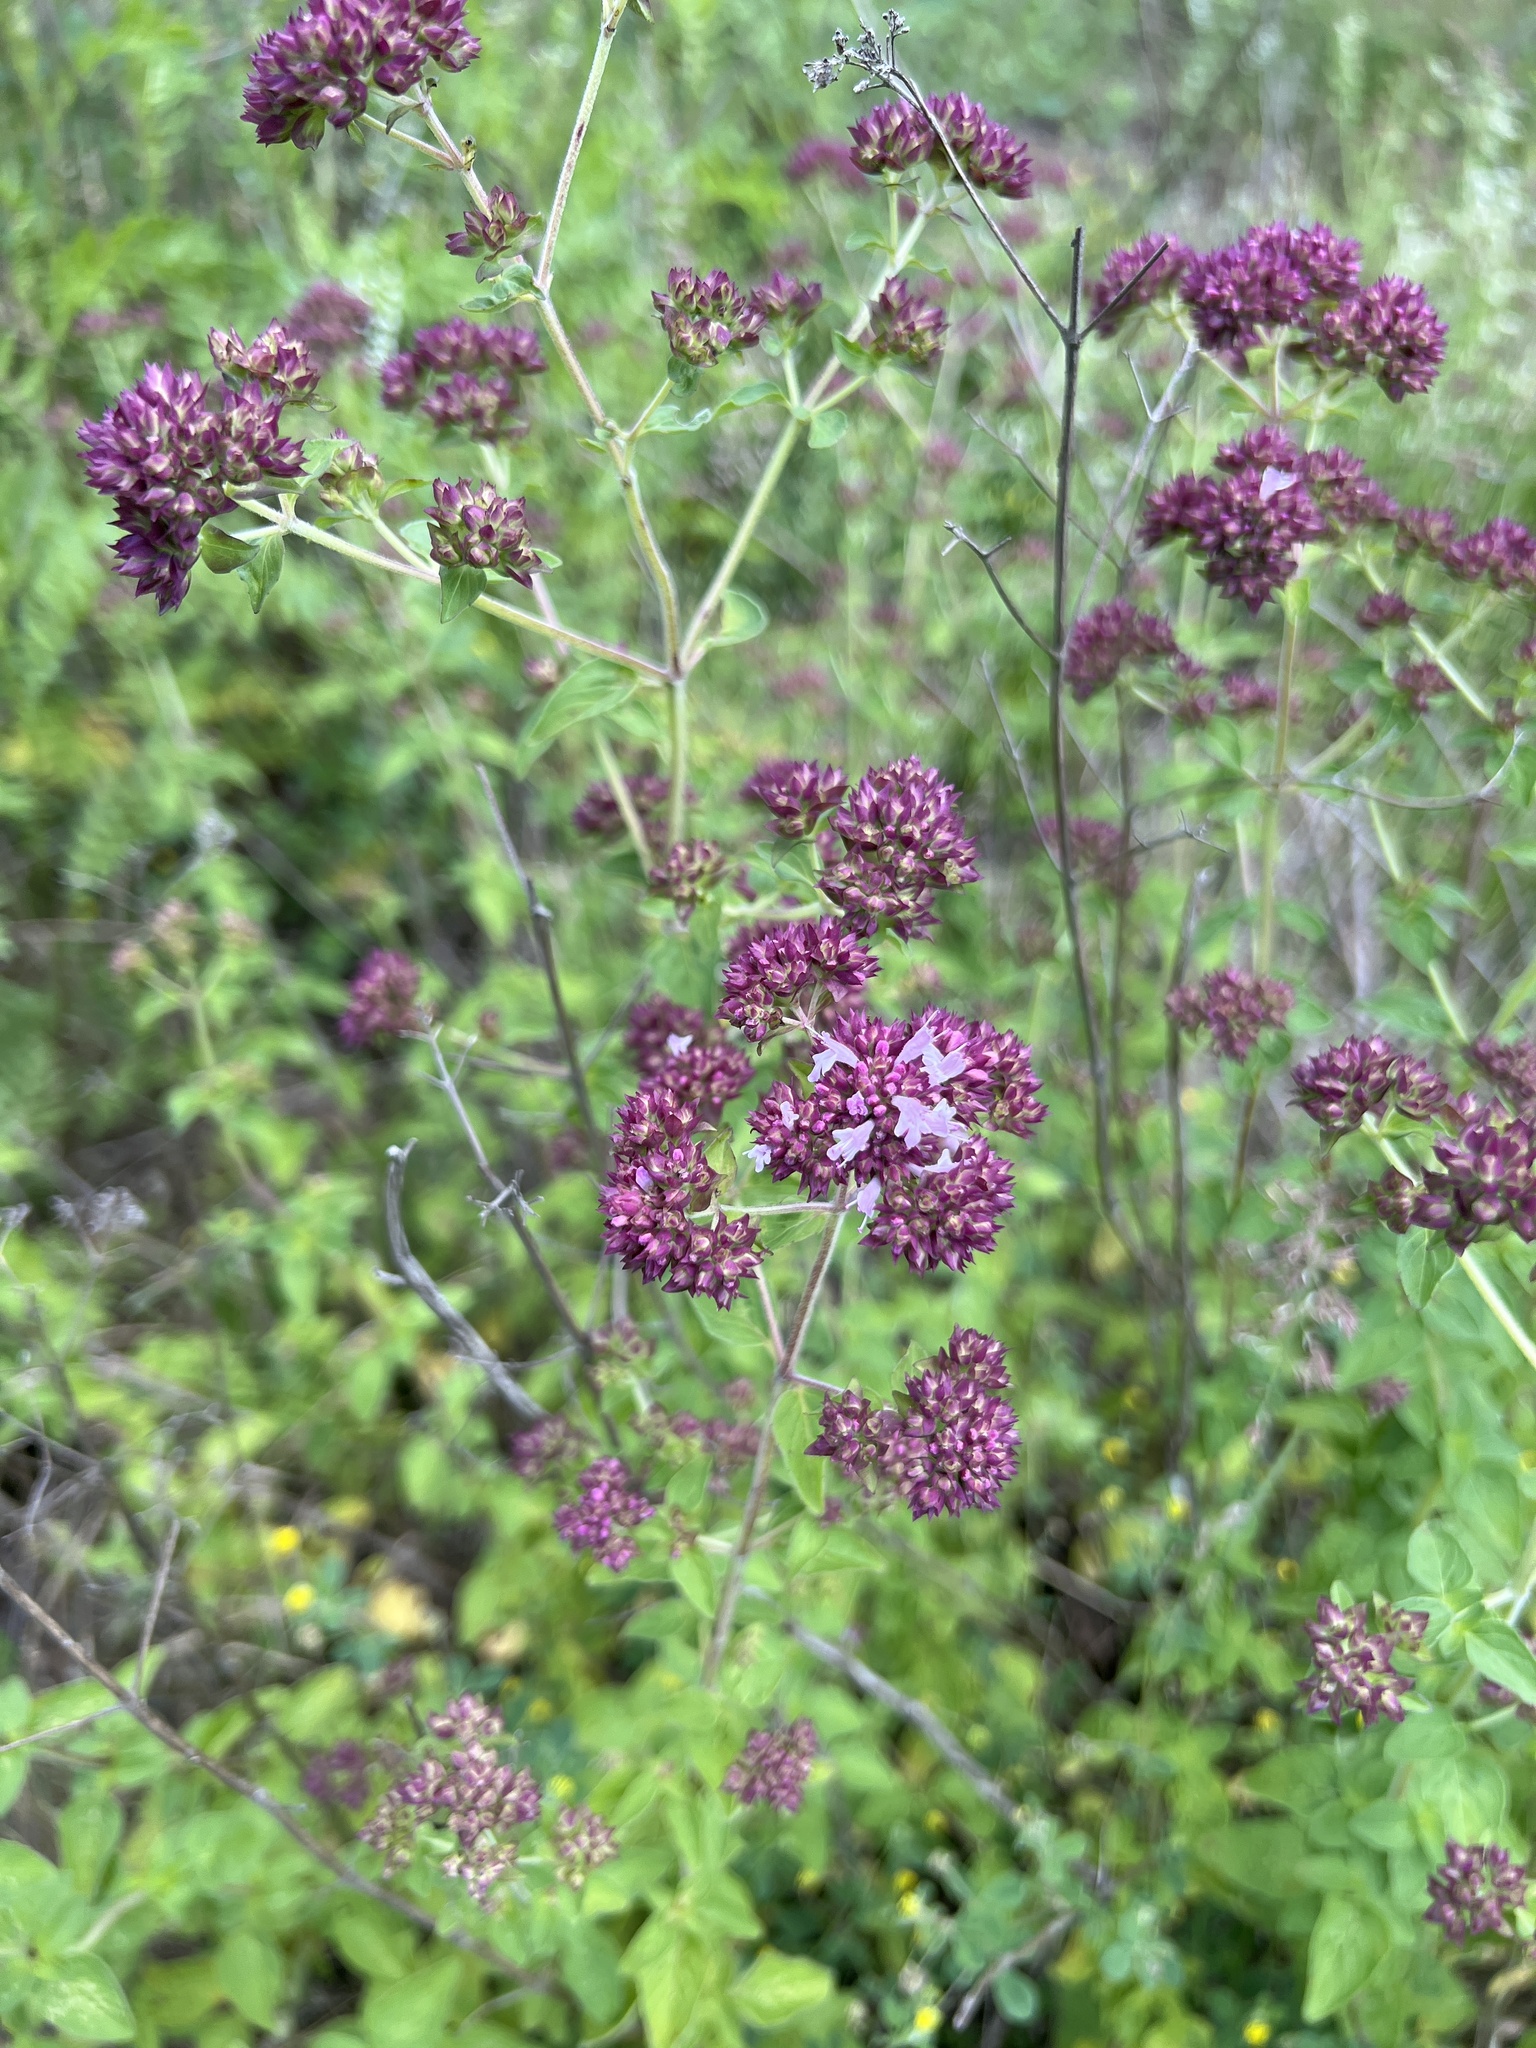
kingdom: Plantae
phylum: Tracheophyta
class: Magnoliopsida
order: Lamiales
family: Lamiaceae
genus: Origanum
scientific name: Origanum vulgare
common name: Wild marjoram
